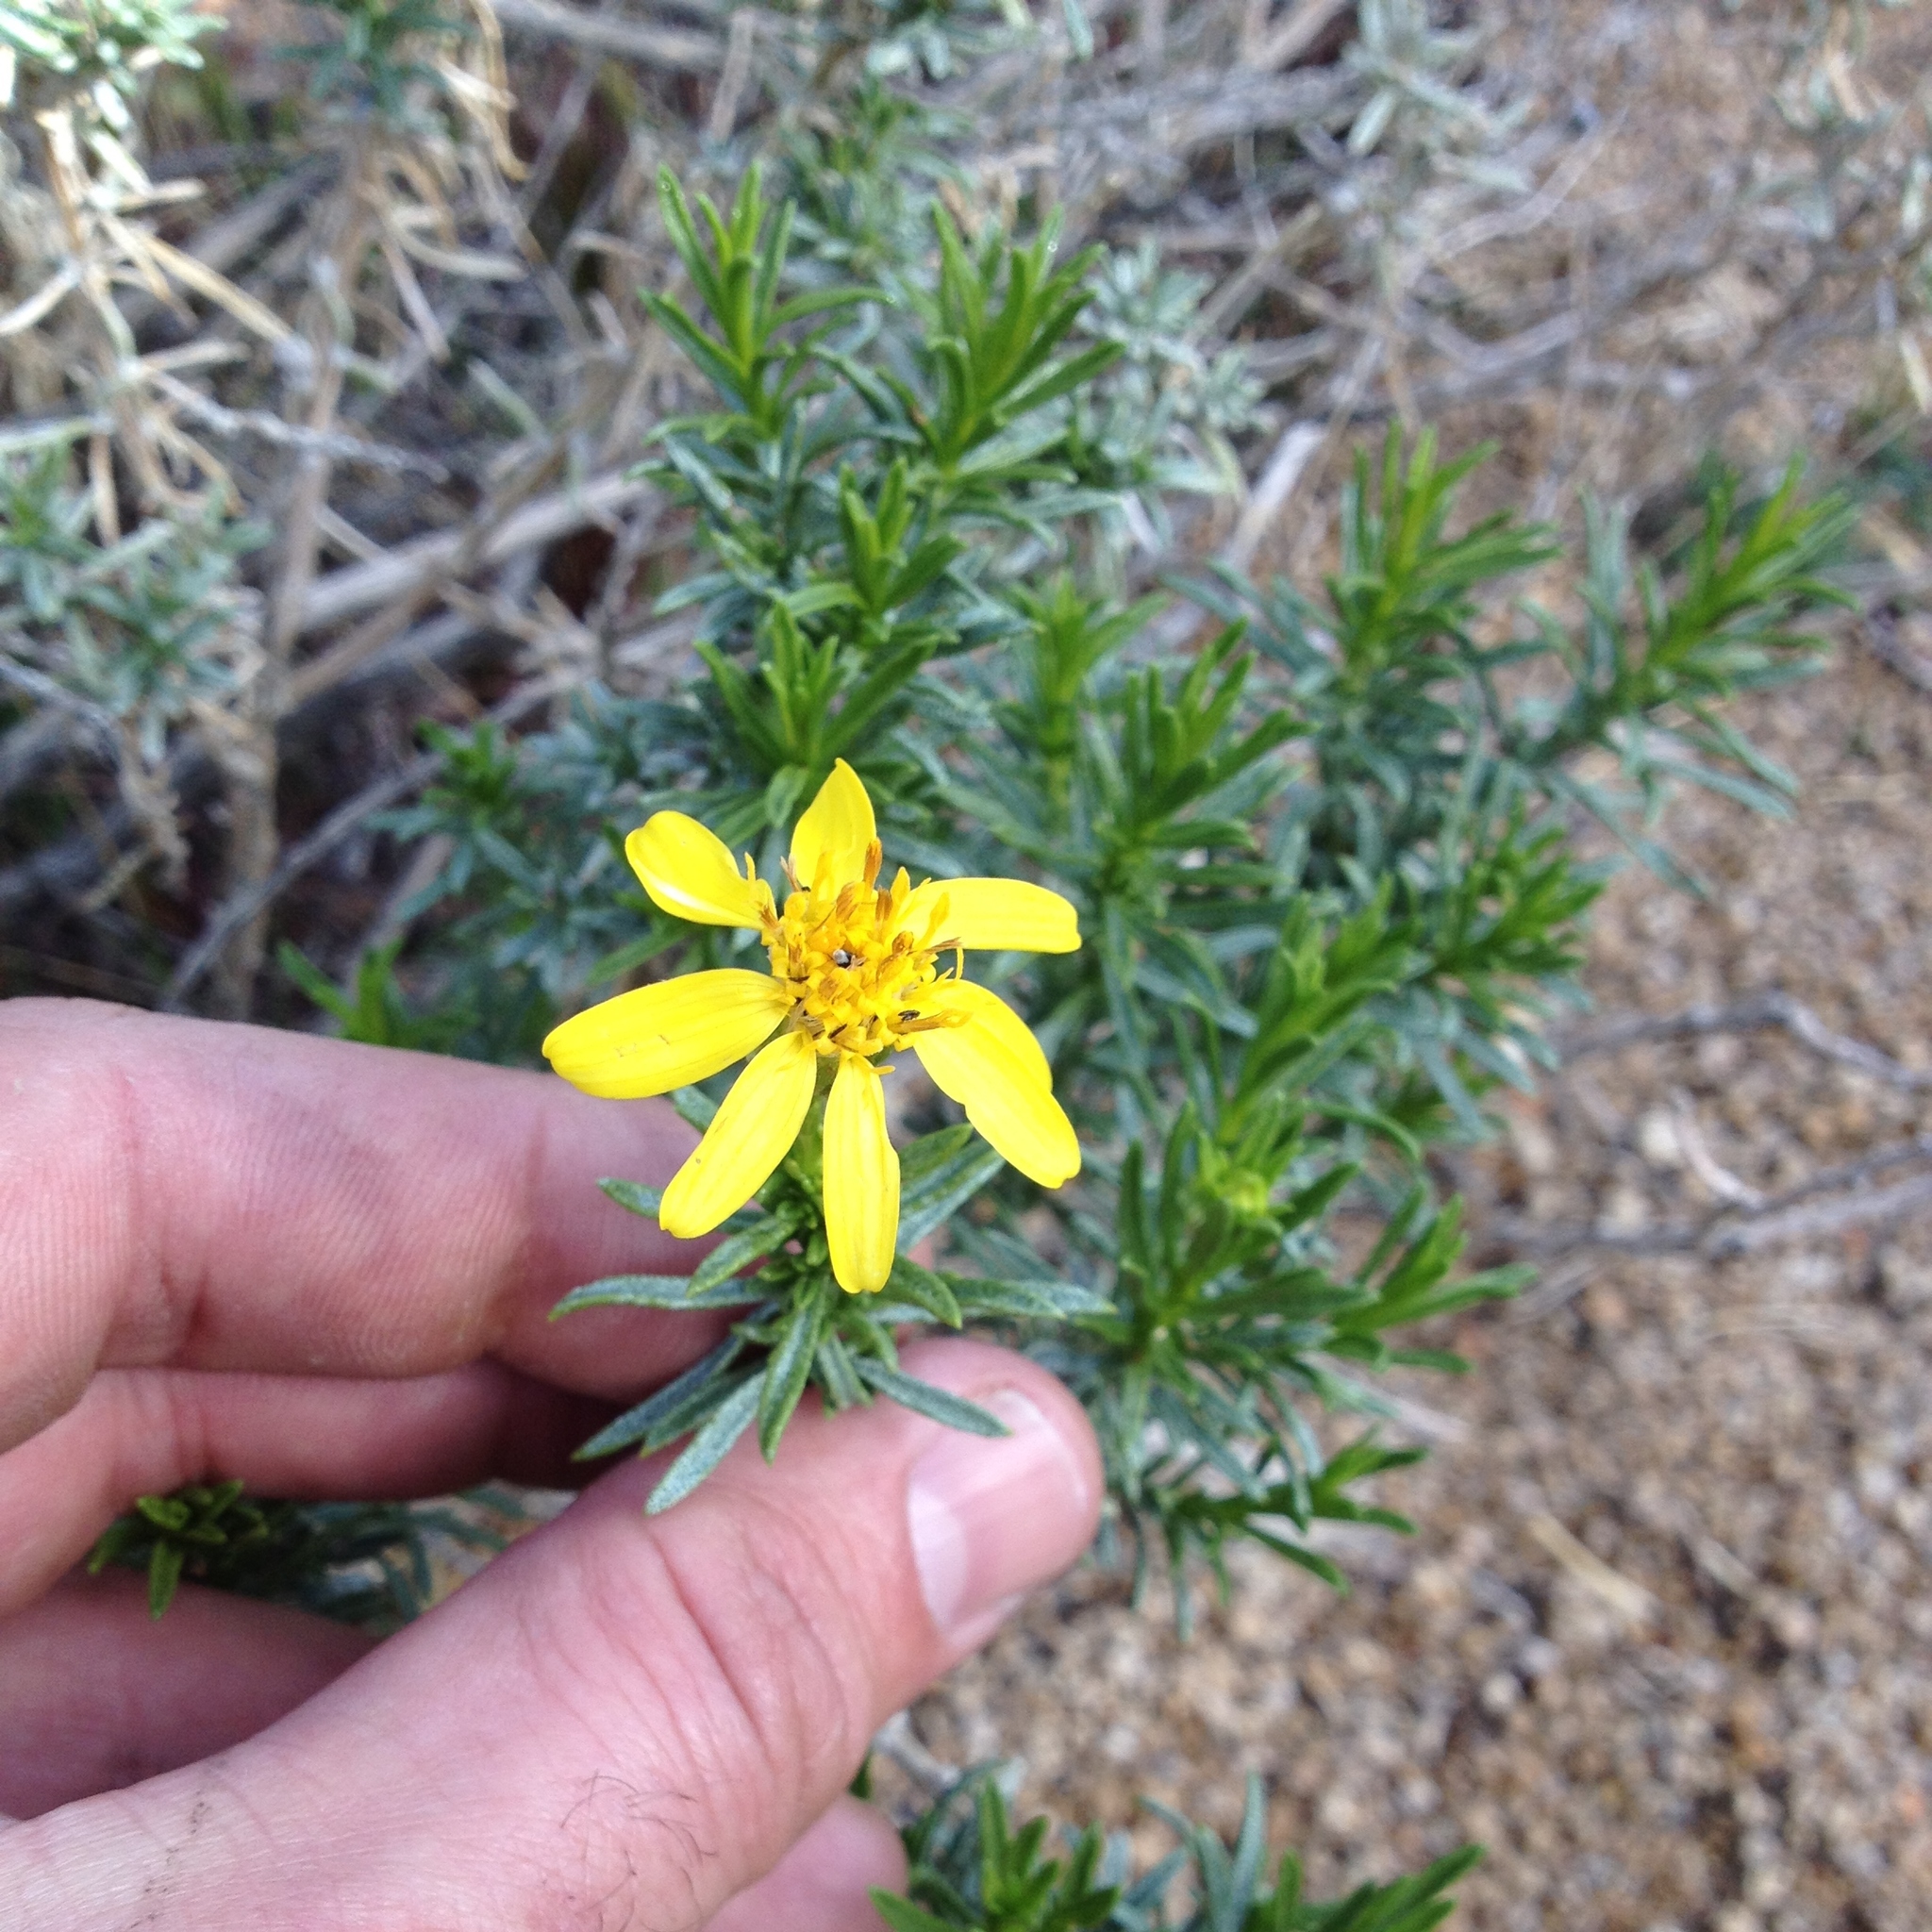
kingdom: Plantae
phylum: Tracheophyta
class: Magnoliopsida
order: Asterales
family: Asteraceae
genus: Ericameria
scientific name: Ericameria linearifolia
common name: Interior goldenbush
